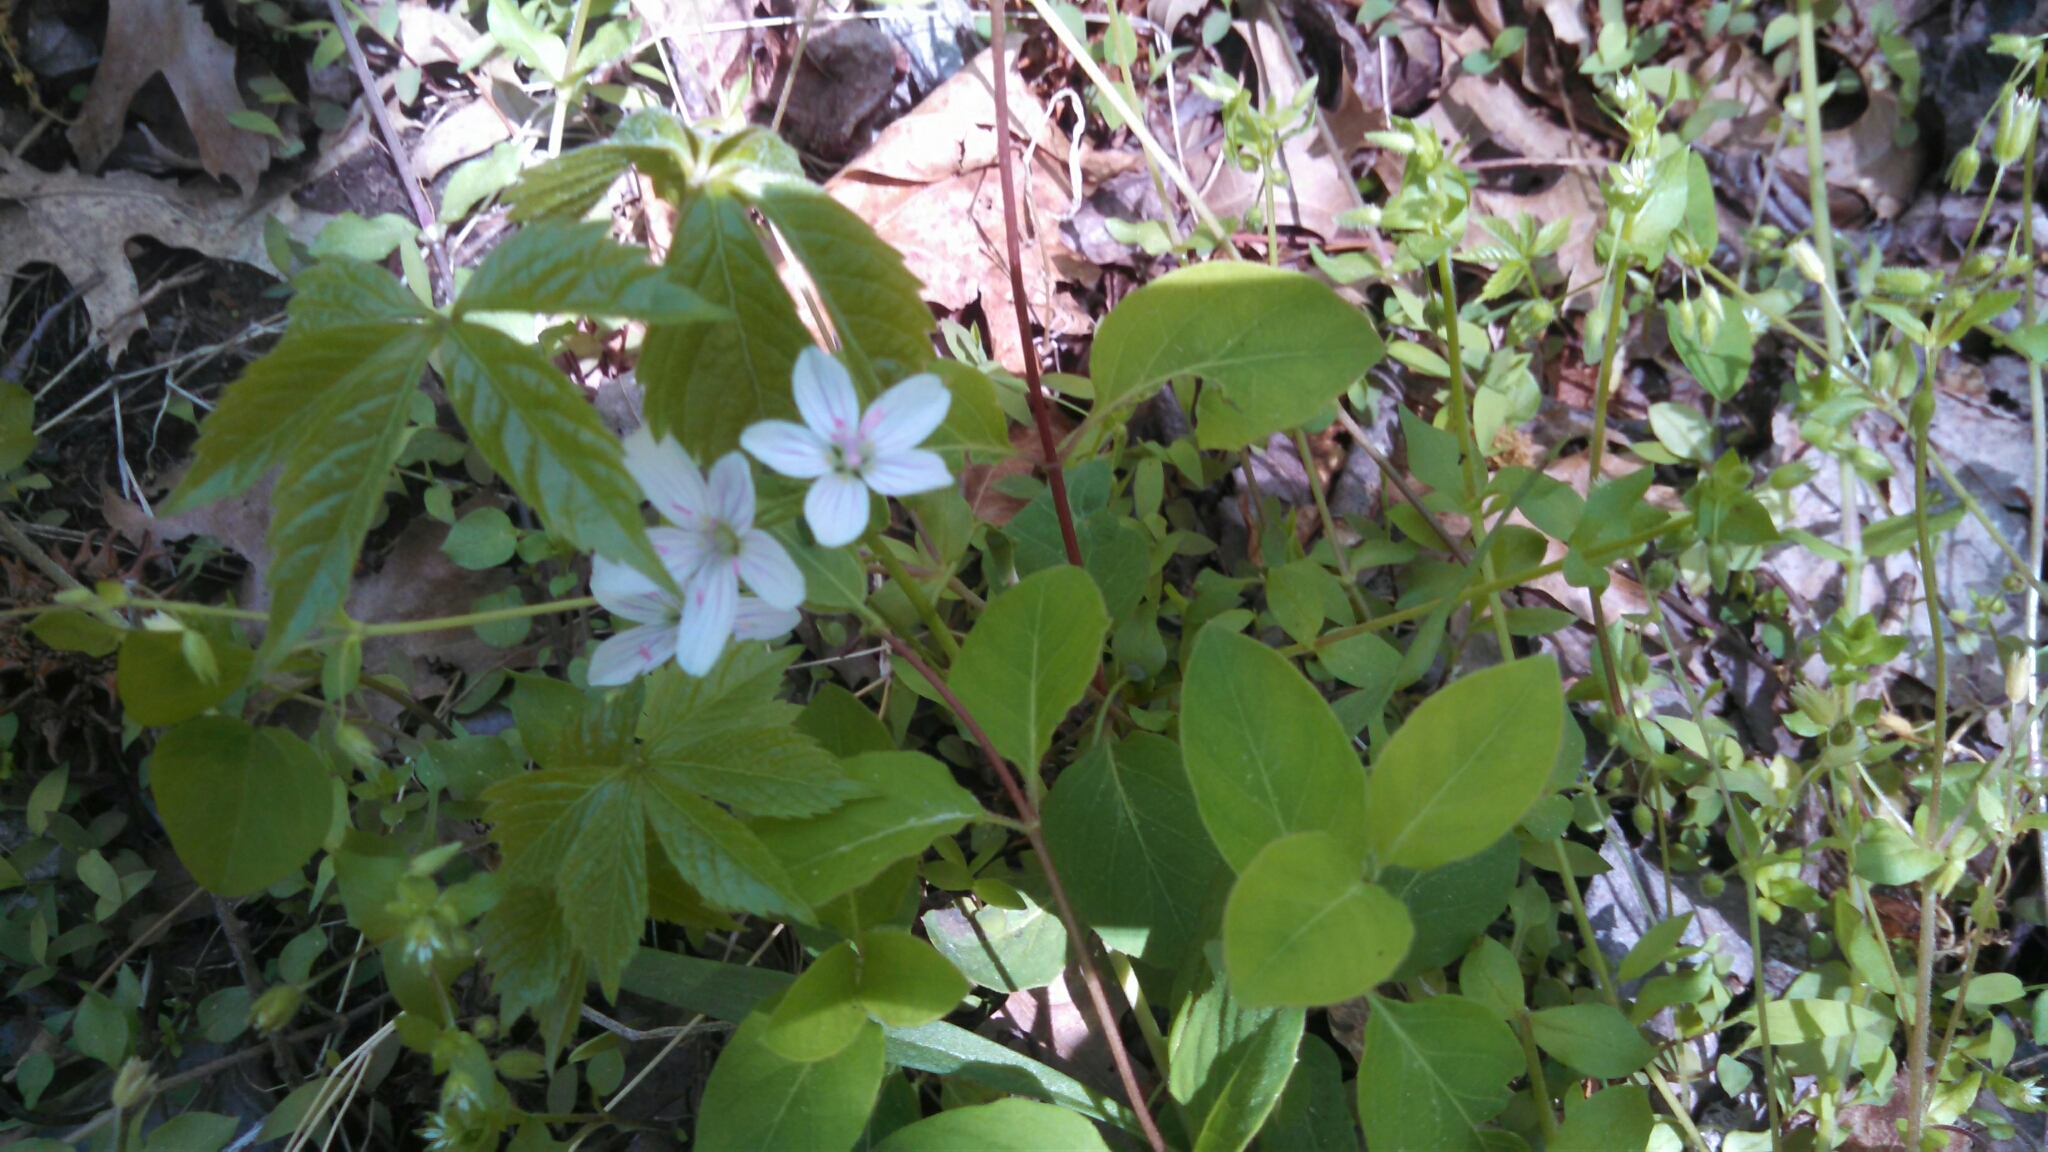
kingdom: Plantae
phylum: Tracheophyta
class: Magnoliopsida
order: Caryophyllales
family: Montiaceae
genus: Claytonia
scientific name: Claytonia virginica
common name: Virginia springbeauty
